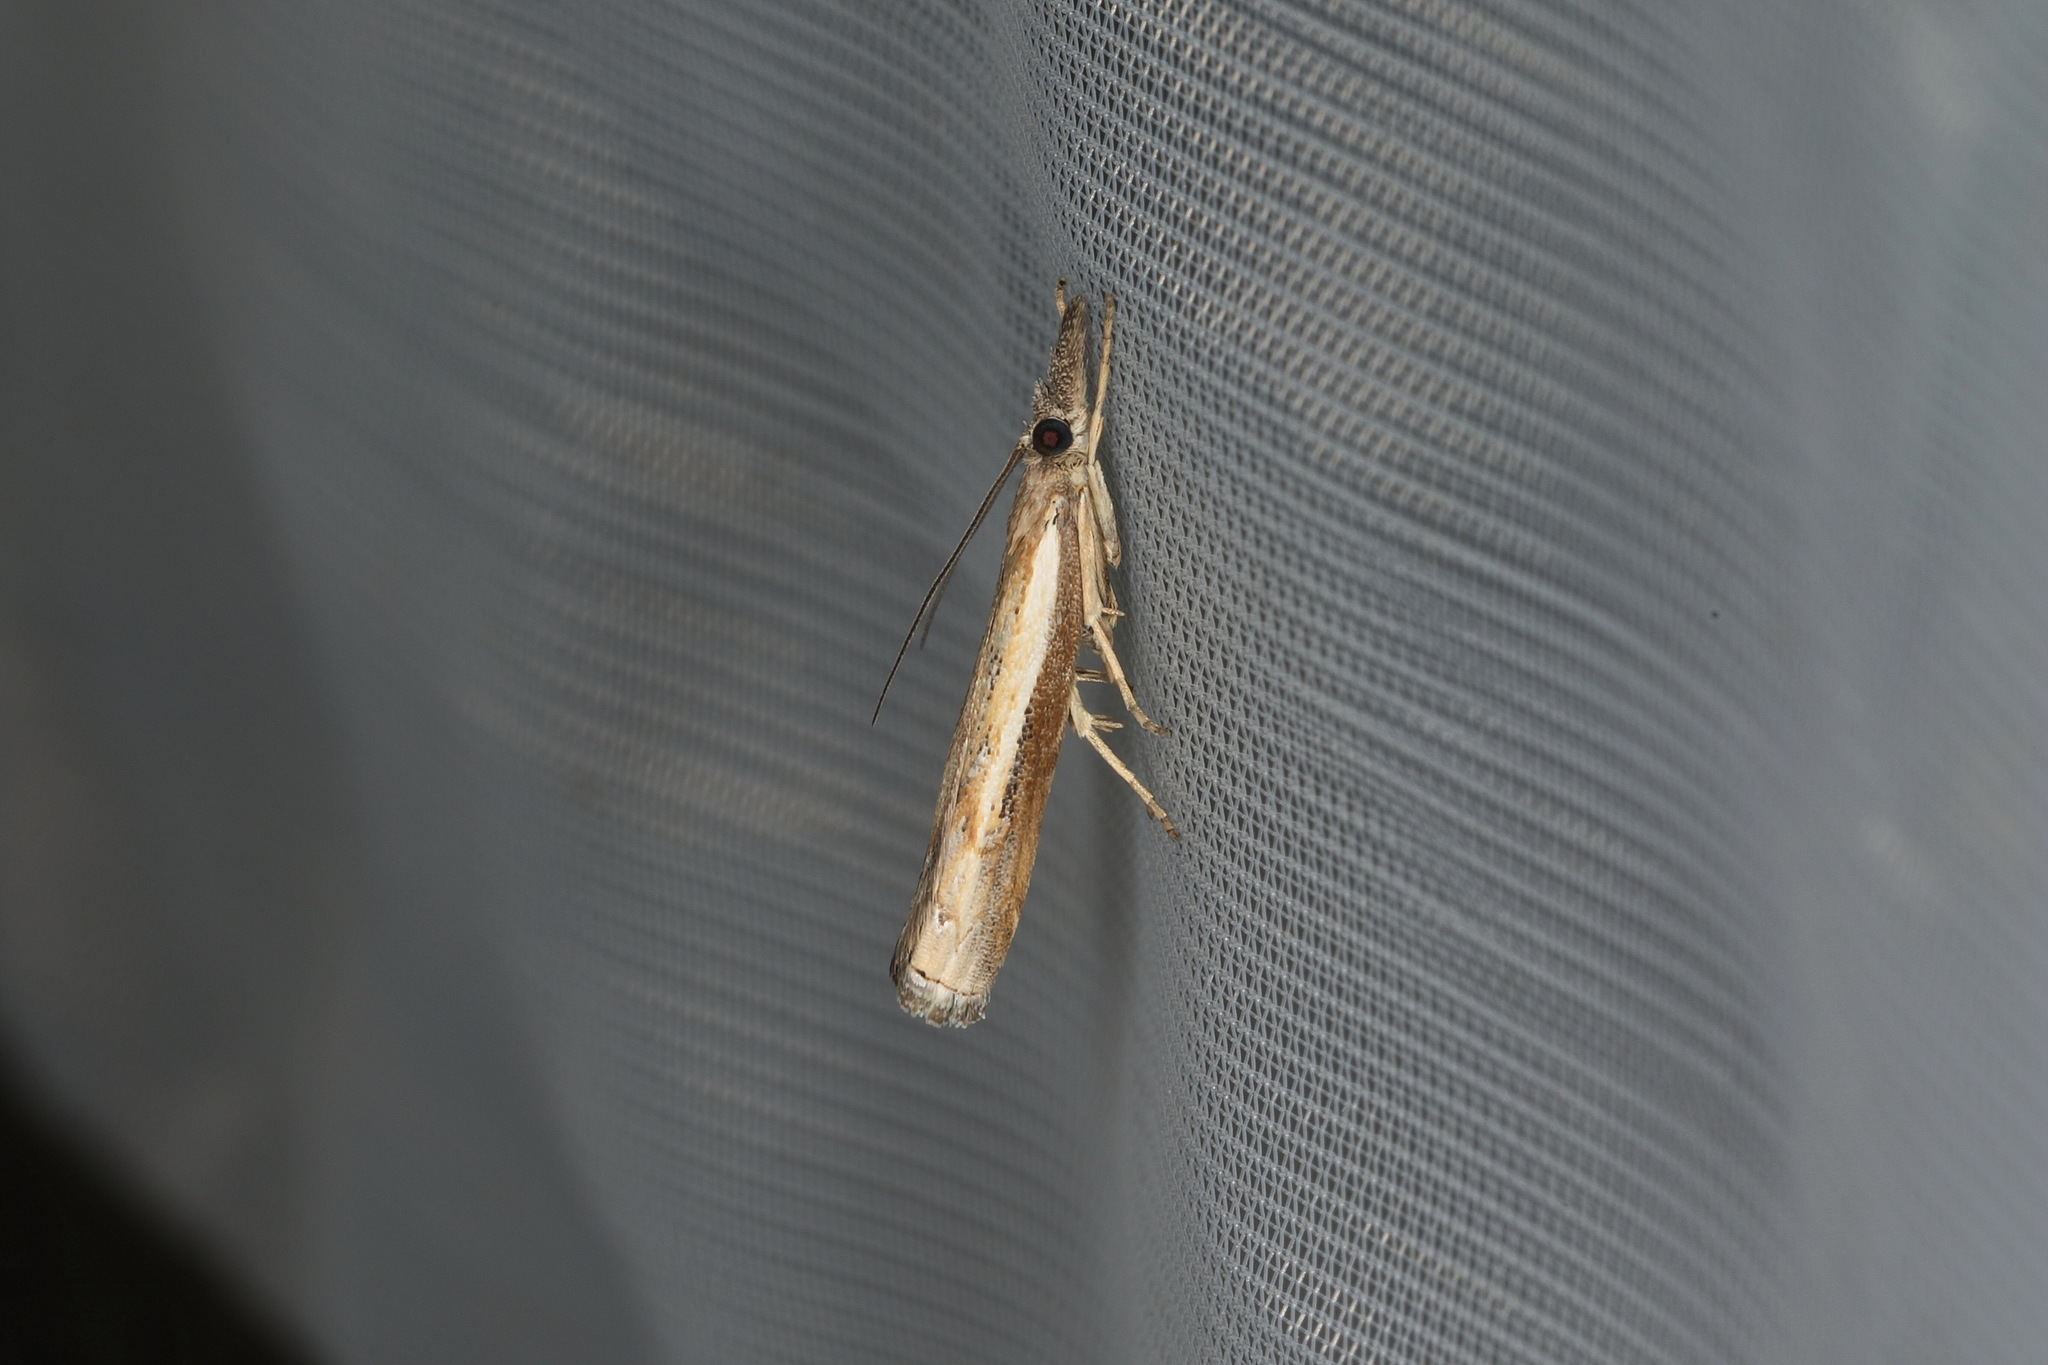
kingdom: Animalia
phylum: Arthropoda
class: Insecta
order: Lepidoptera
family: Crambidae
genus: Ptochostola
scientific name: Ptochostola microphaeellus
